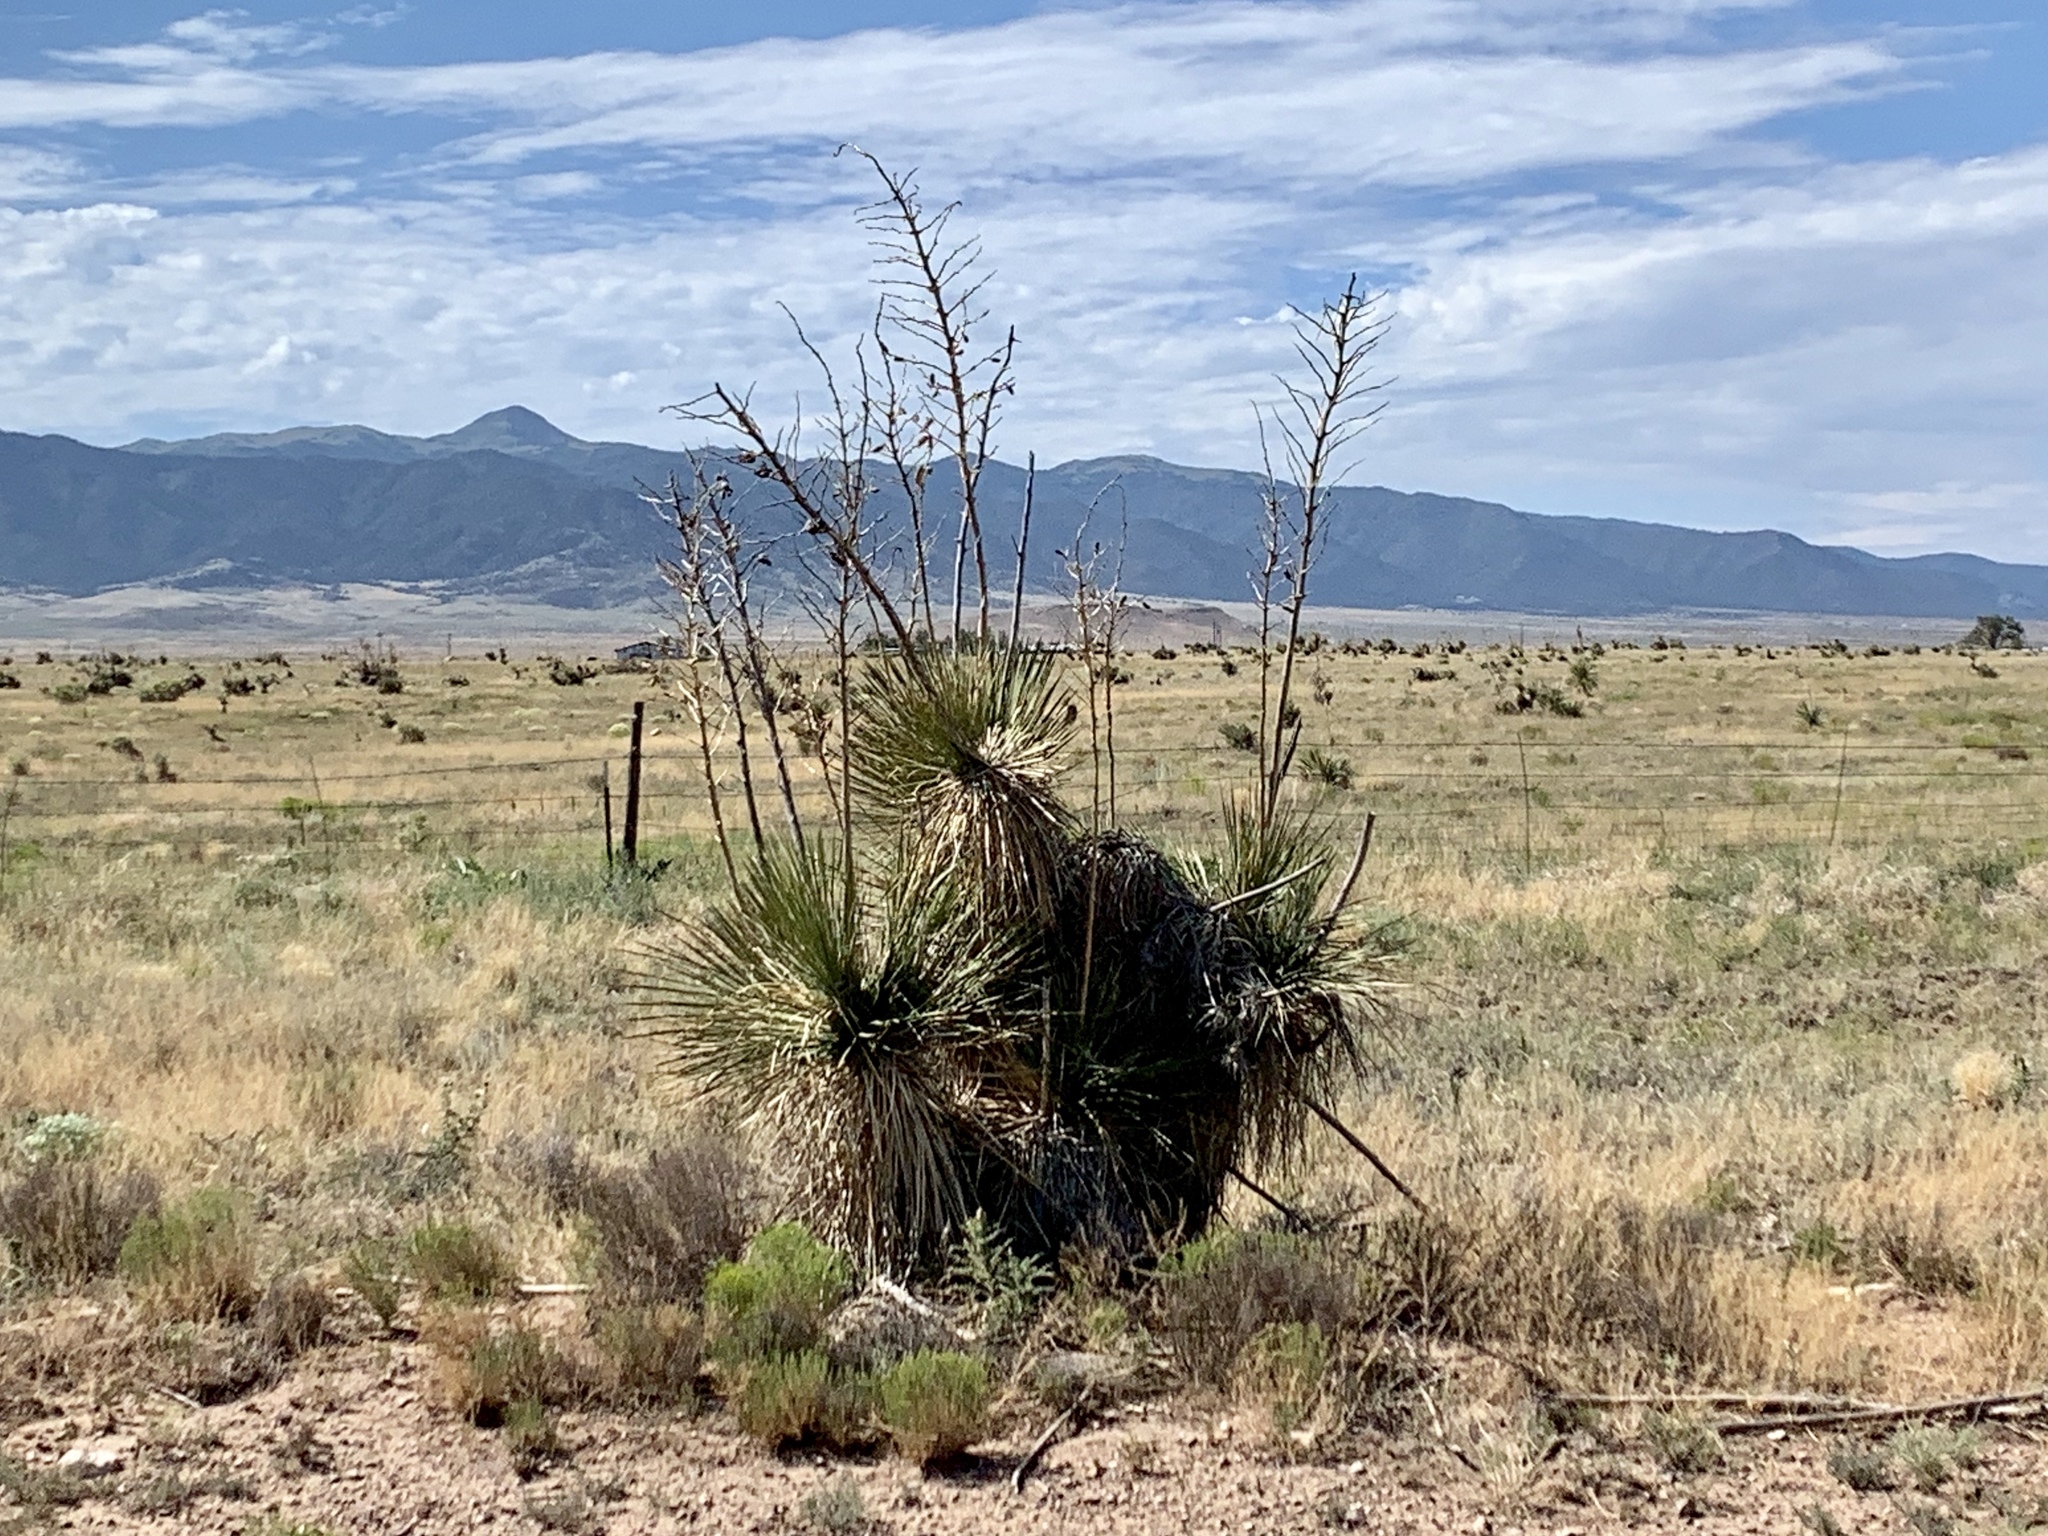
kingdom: Plantae
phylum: Tracheophyta
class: Liliopsida
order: Asparagales
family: Asparagaceae
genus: Yucca
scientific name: Yucca elata
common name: Palmella
